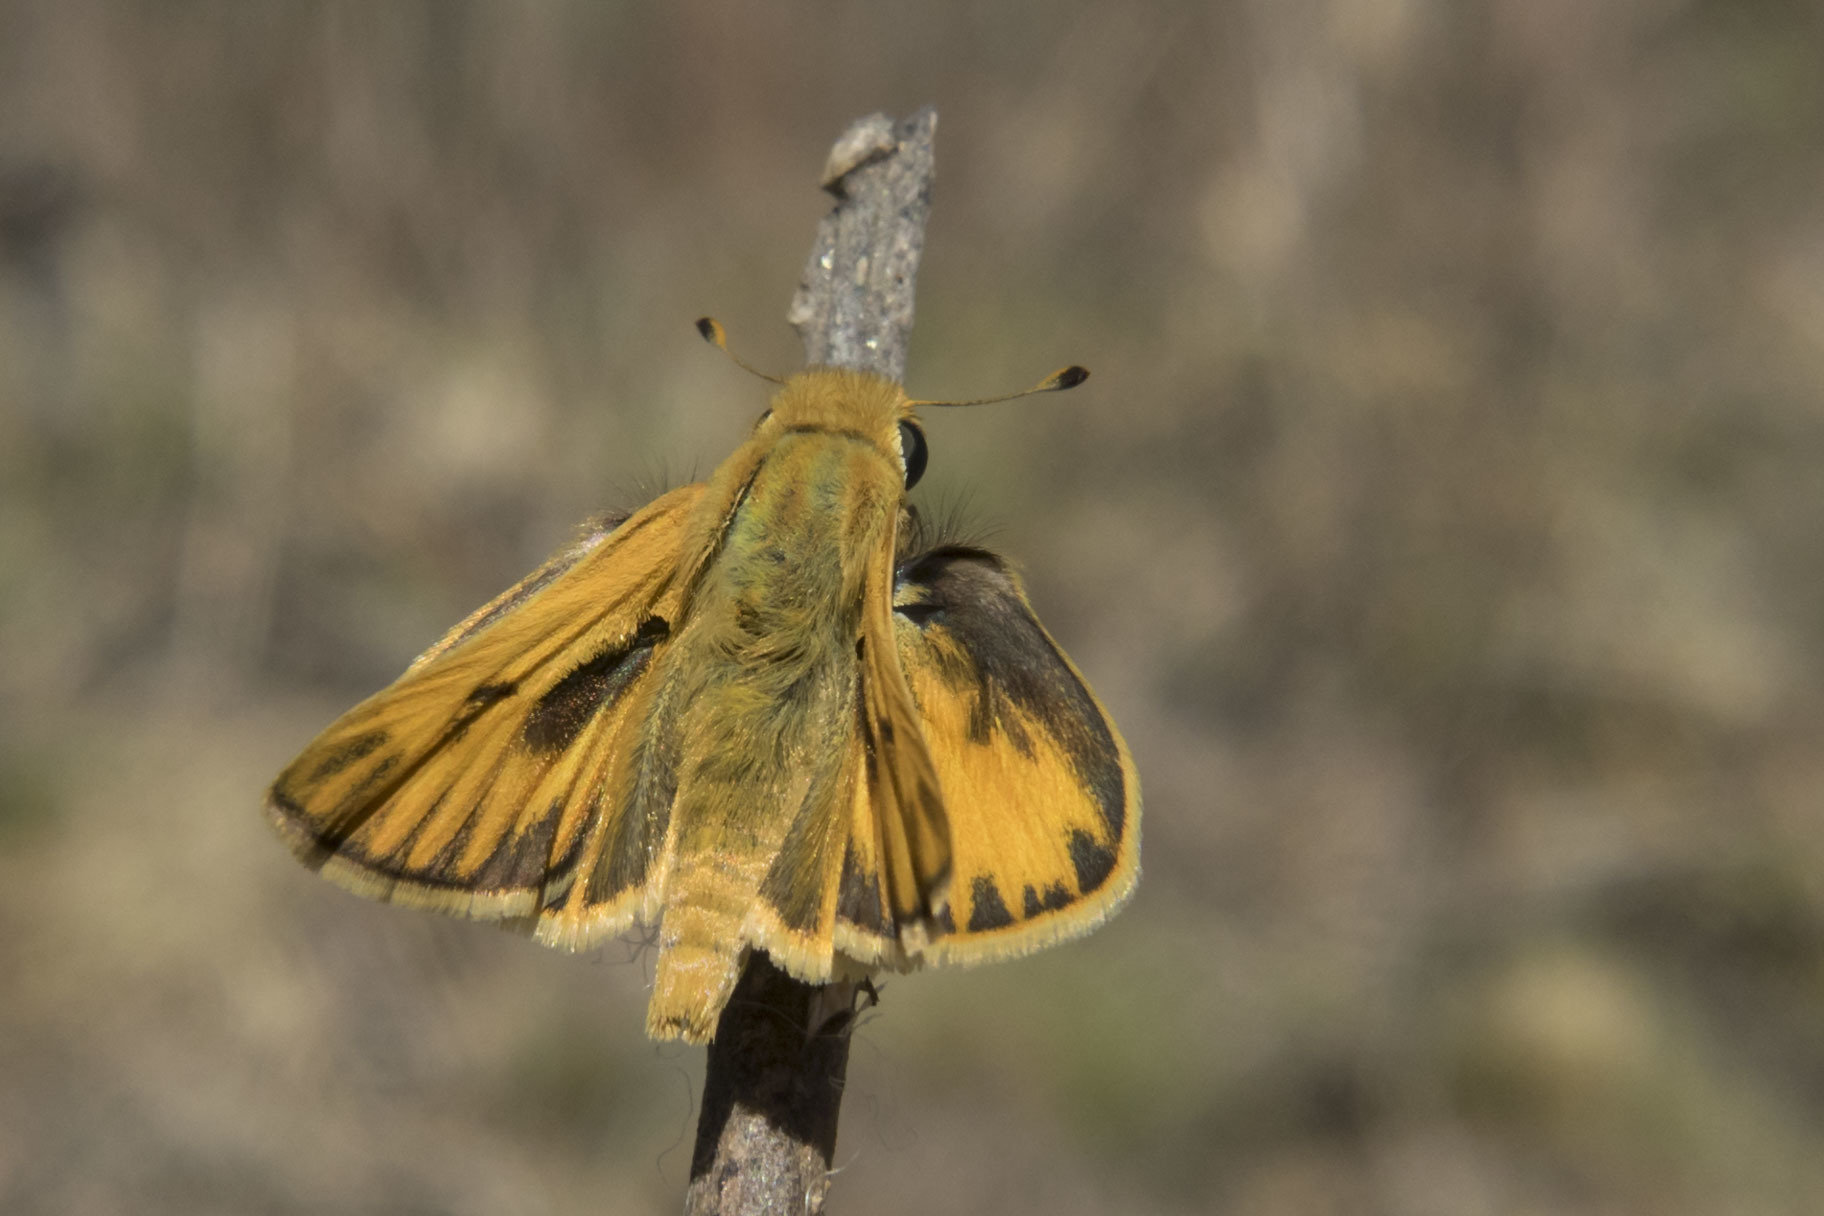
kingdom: Animalia
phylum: Arthropoda
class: Insecta
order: Lepidoptera
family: Hesperiidae
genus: Hylephila
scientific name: Hylephila phyleus
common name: Fiery skipper
